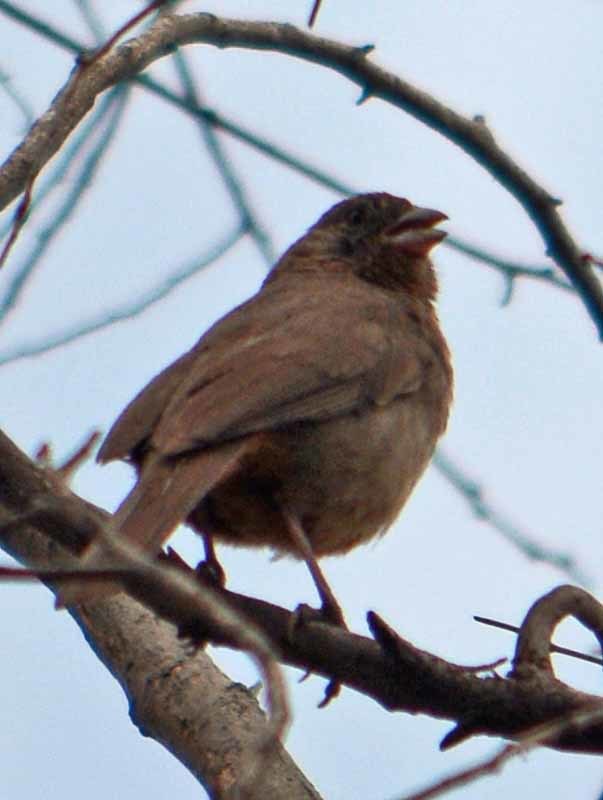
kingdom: Animalia
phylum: Chordata
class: Aves
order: Passeriformes
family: Passerellidae
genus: Melozone
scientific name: Melozone fusca
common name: Canyon towhee
